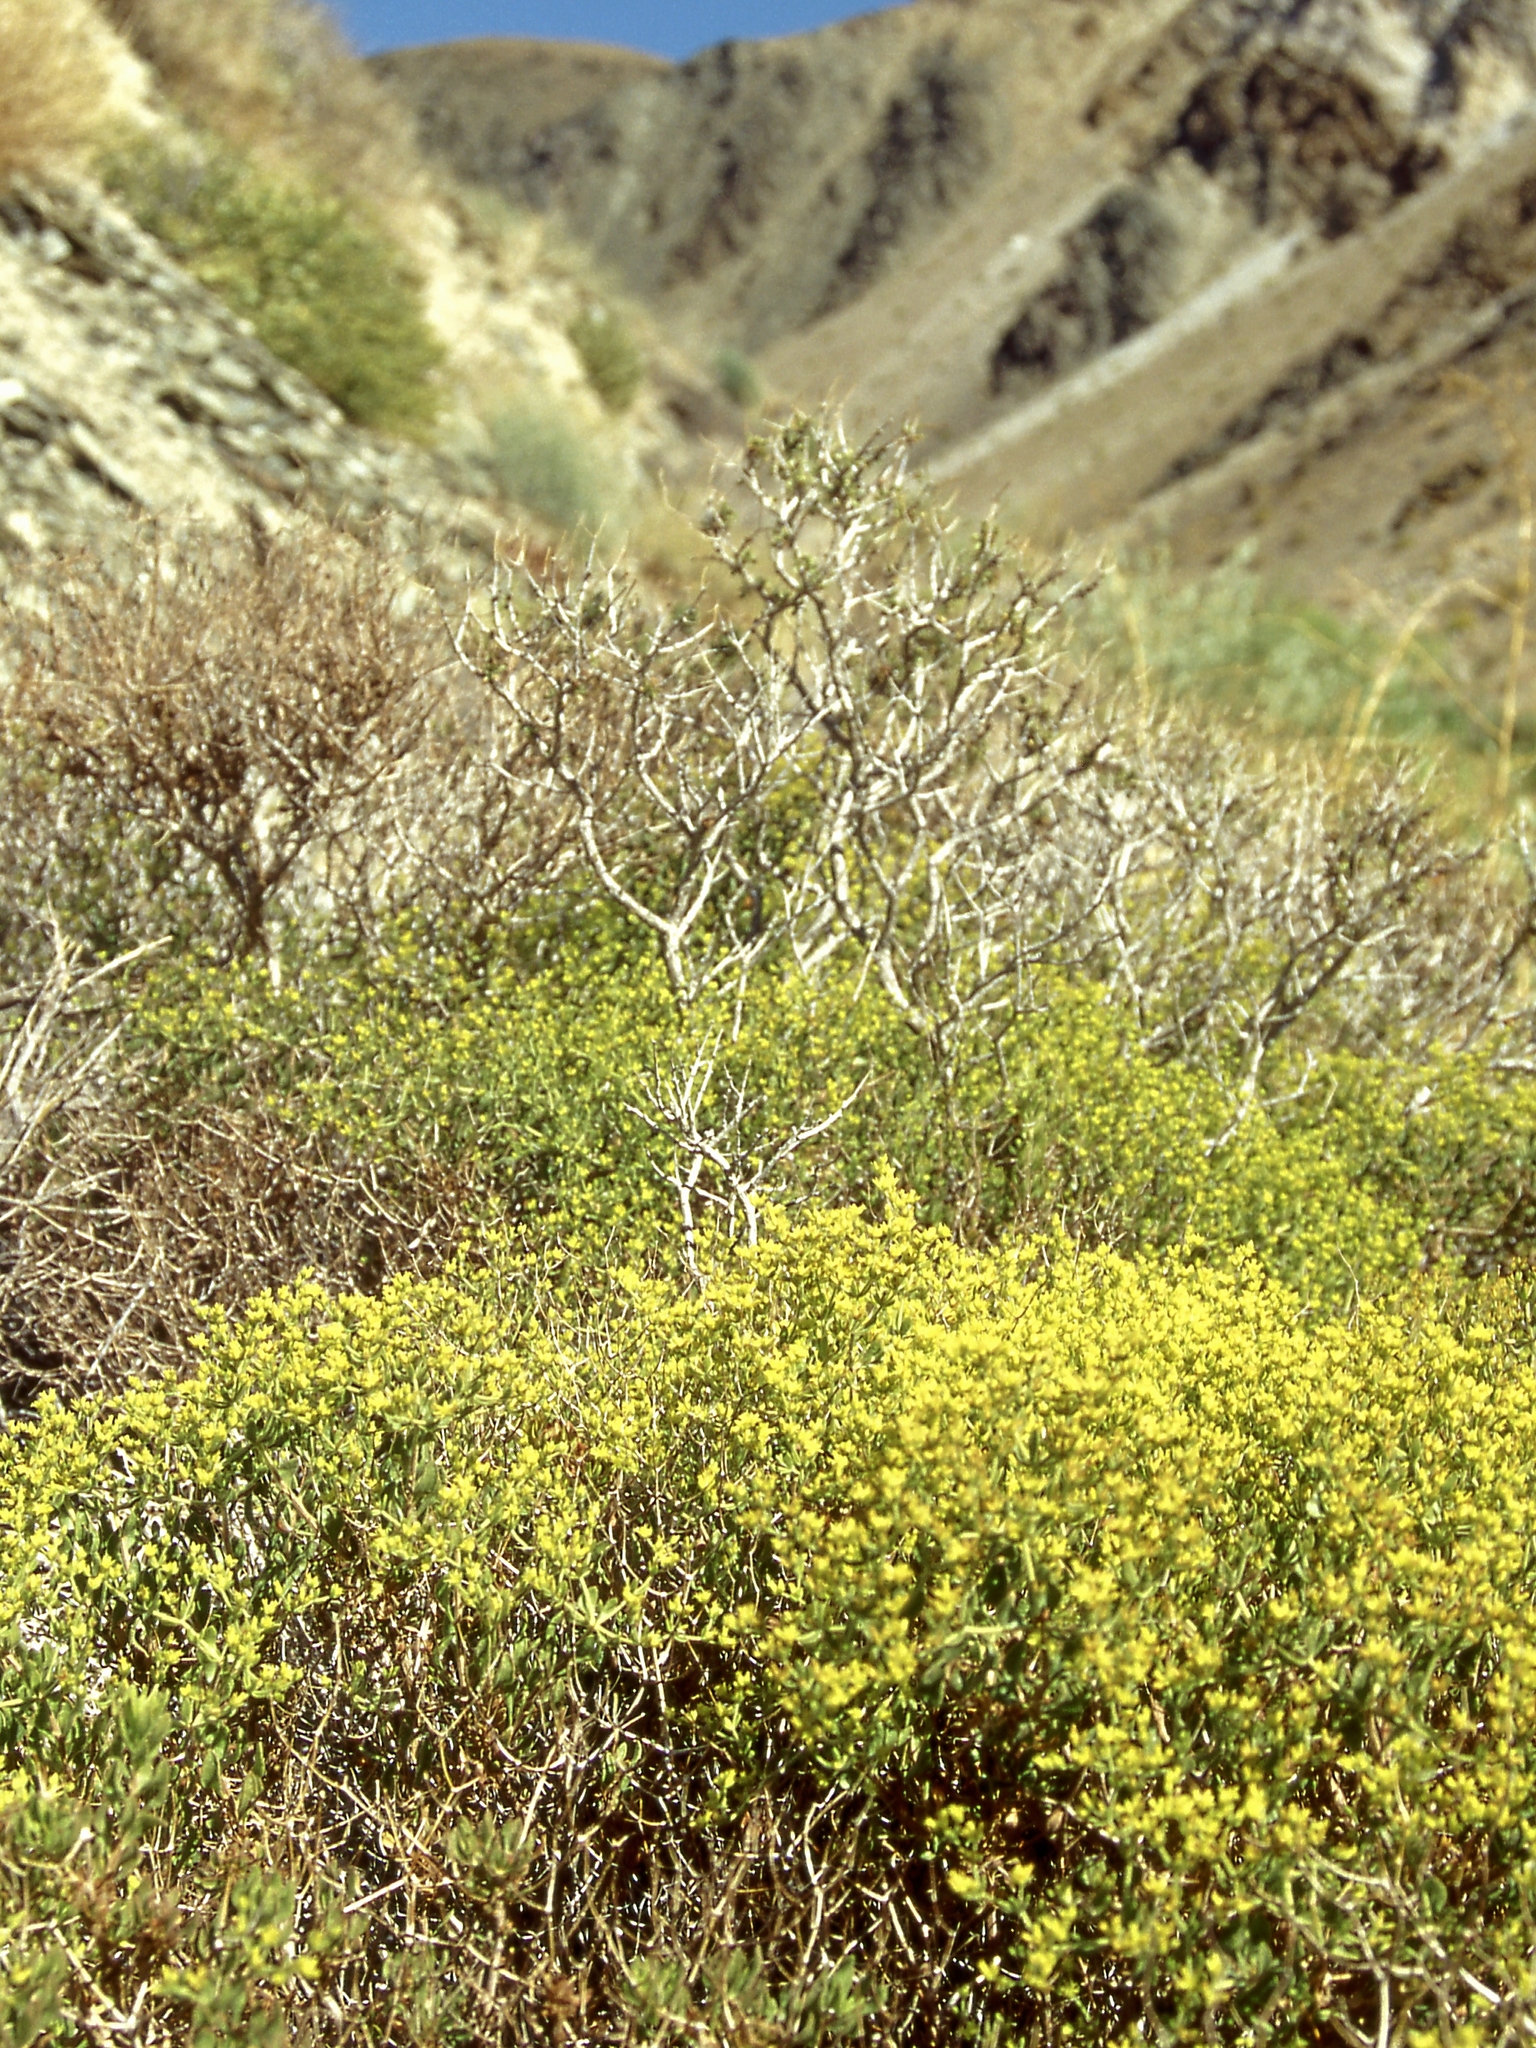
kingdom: Plantae
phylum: Tracheophyta
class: Magnoliopsida
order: Caryophyllales
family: Polygonaceae
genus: Dedeckera
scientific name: Dedeckera eurekensis
